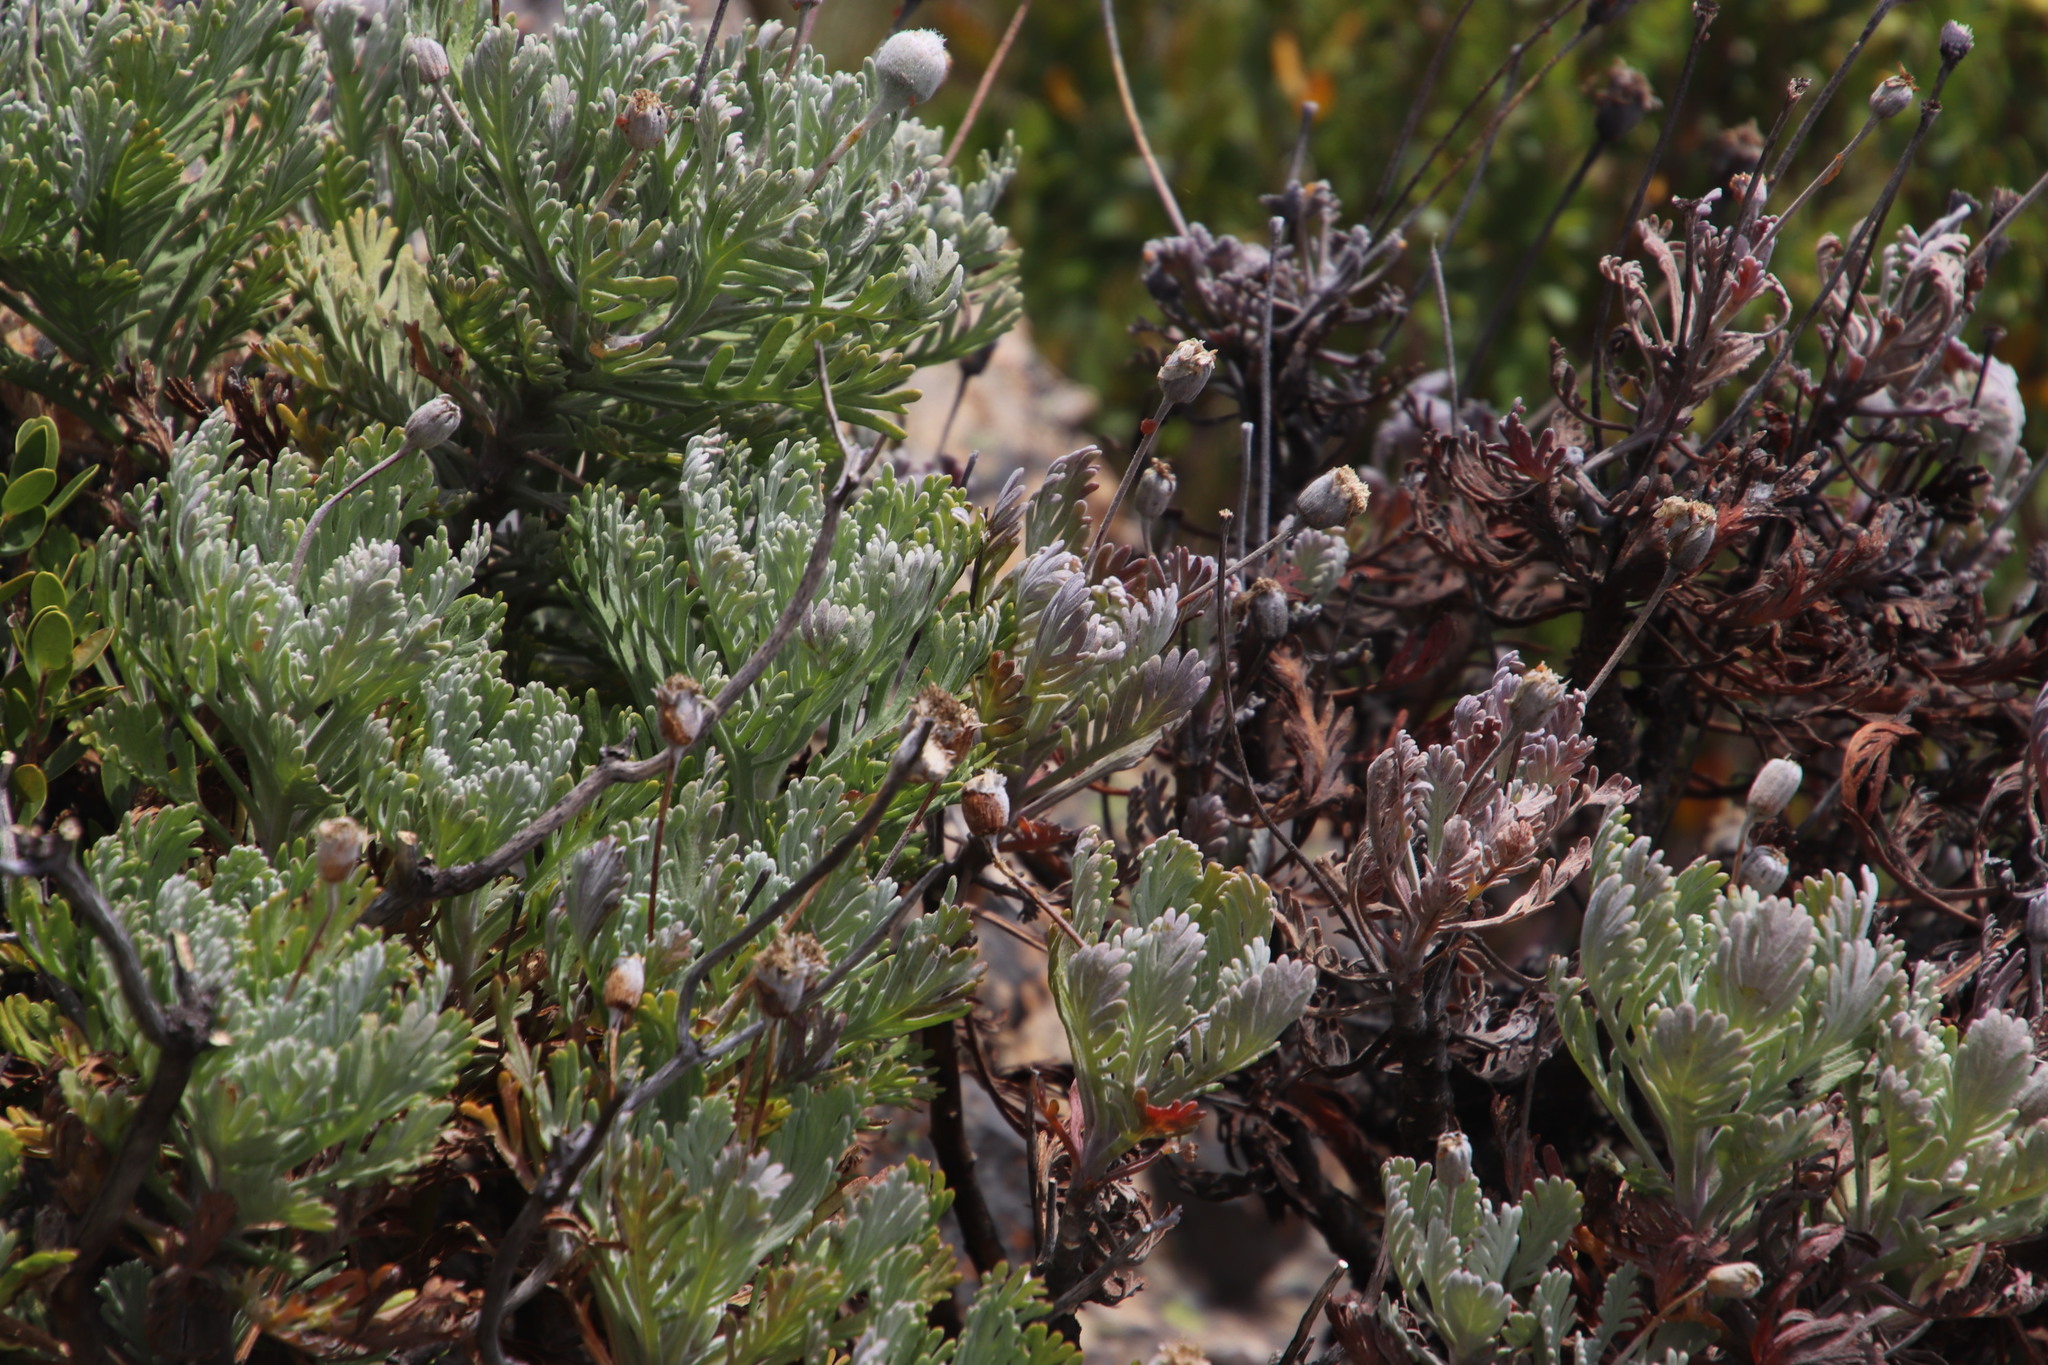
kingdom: Plantae
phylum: Tracheophyta
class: Magnoliopsida
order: Asterales
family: Asteraceae
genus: Euryops
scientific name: Euryops pectinatus
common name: Gray-leaf euryops
